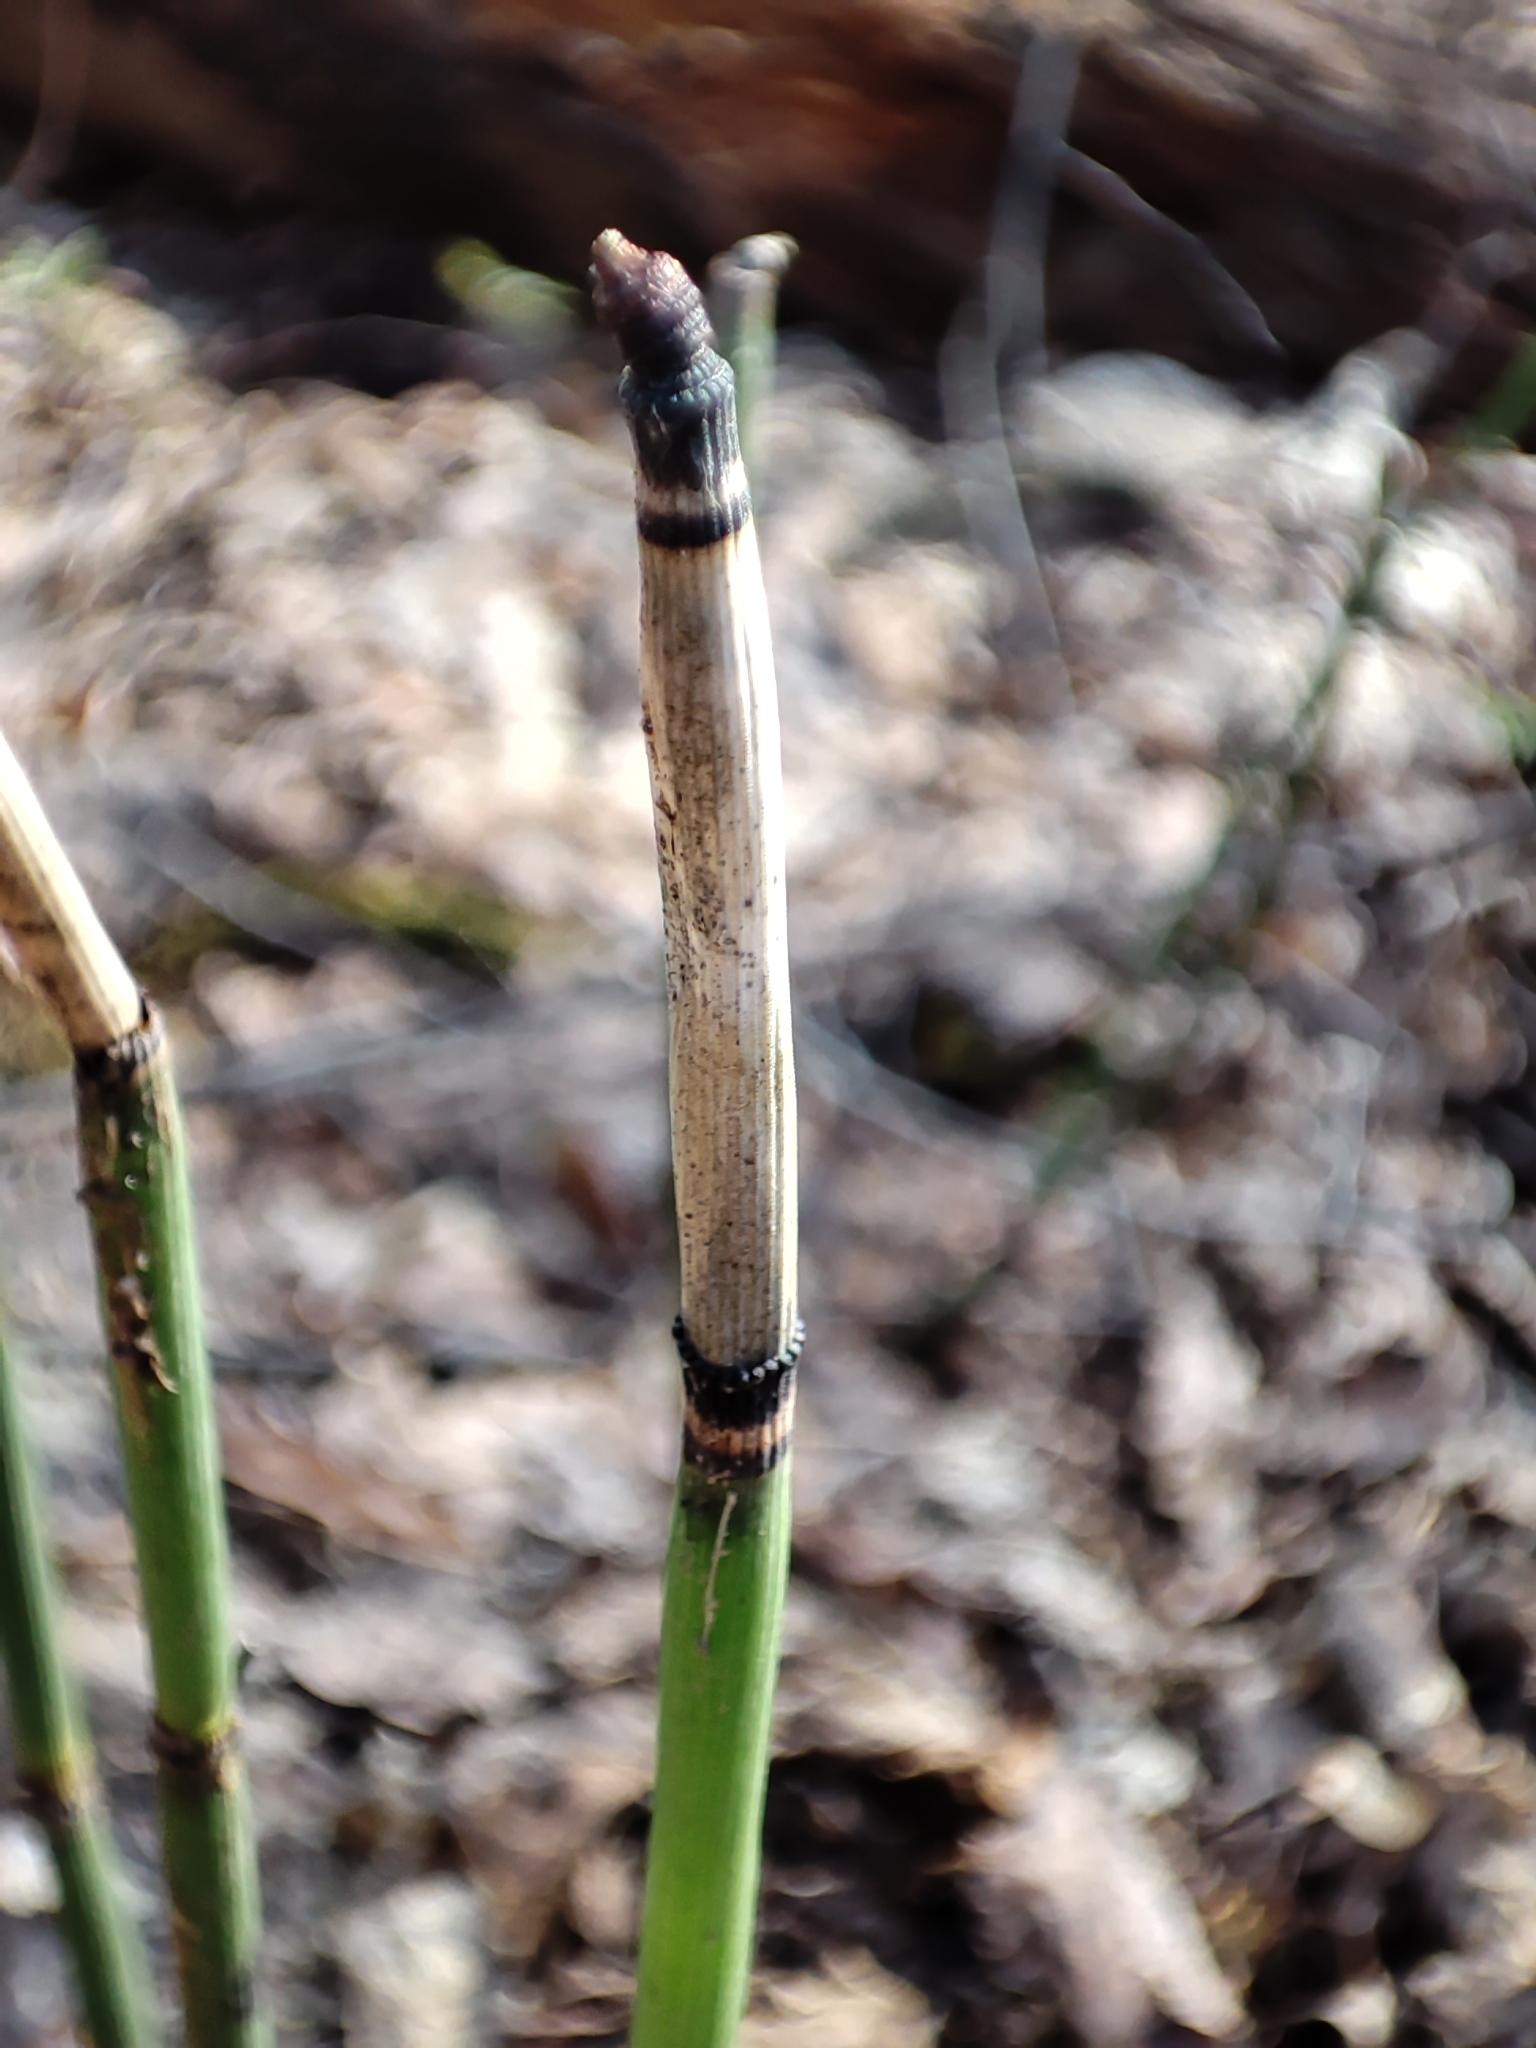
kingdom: Plantae
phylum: Tracheophyta
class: Polypodiopsida
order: Equisetales
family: Equisetaceae
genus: Equisetum
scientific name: Equisetum hyemale
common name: Rough horsetail
